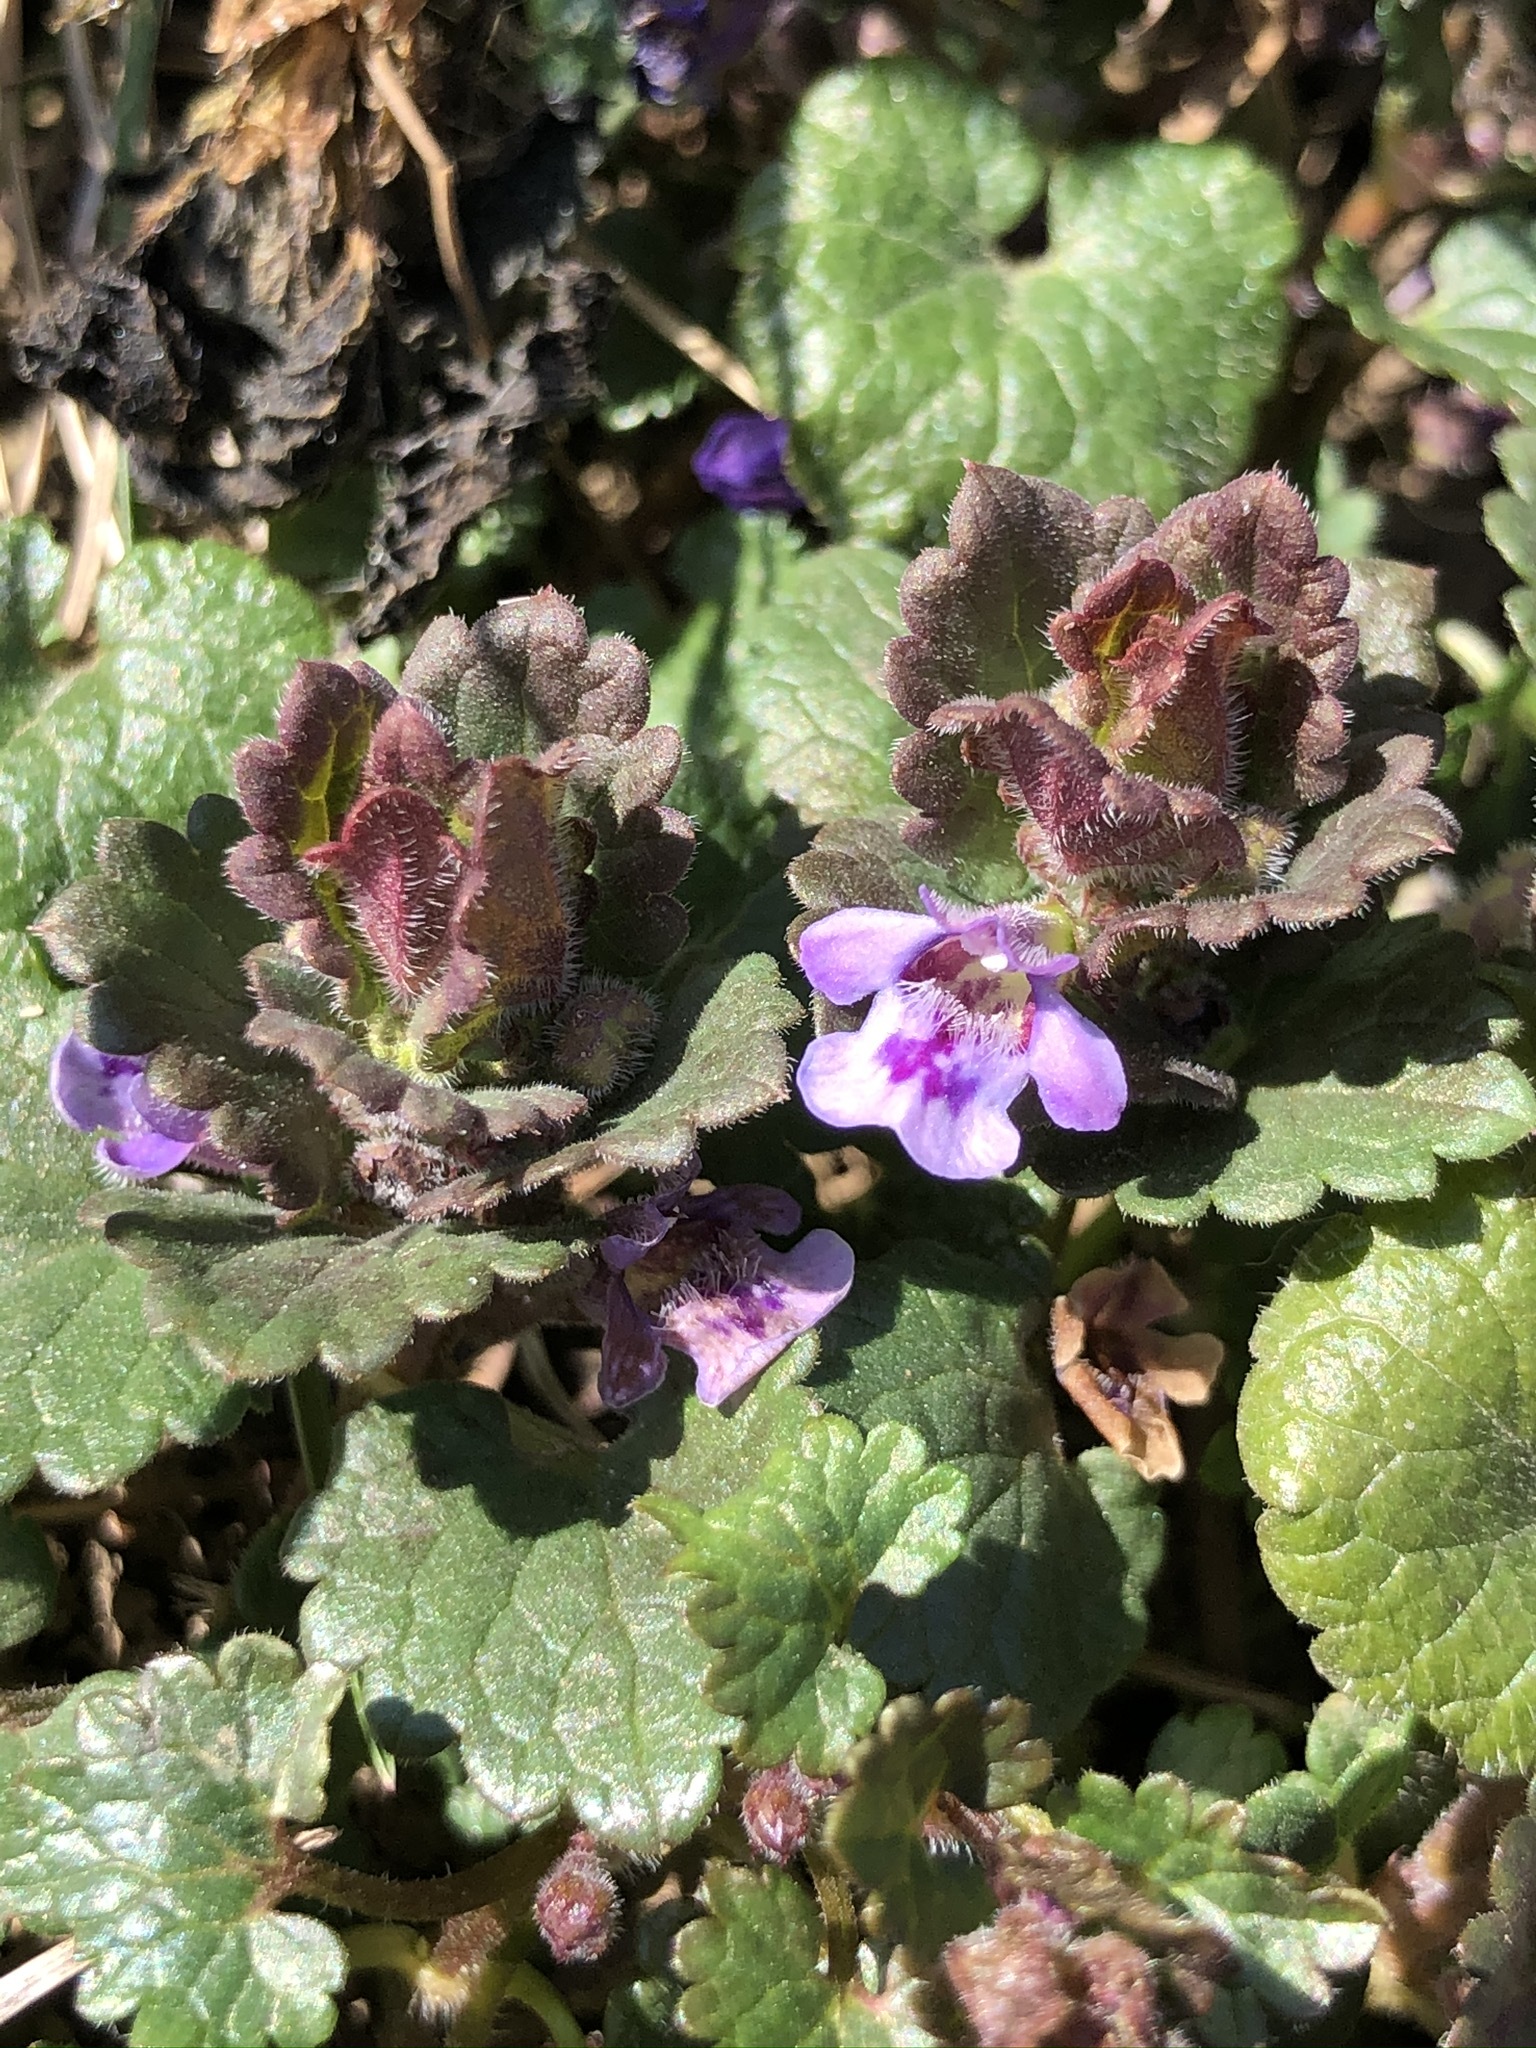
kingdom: Plantae
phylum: Tracheophyta
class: Magnoliopsida
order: Lamiales
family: Lamiaceae
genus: Glechoma
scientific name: Glechoma hederacea
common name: Ground ivy
